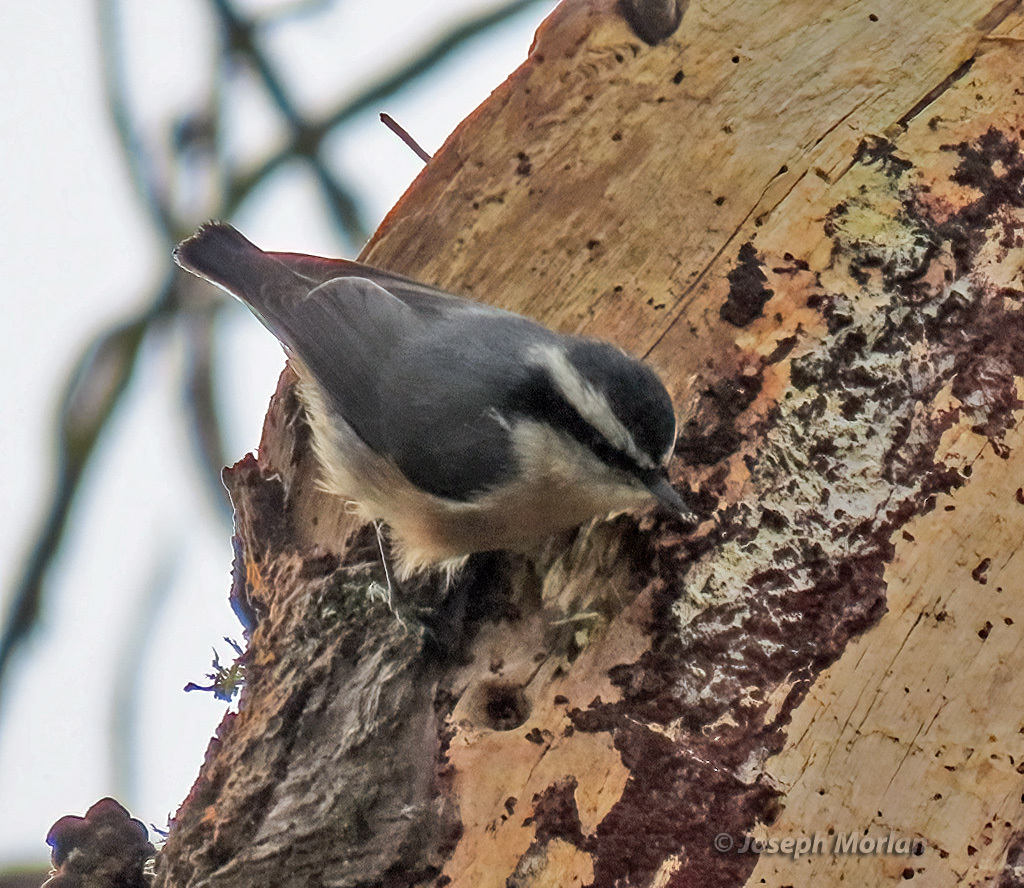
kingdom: Animalia
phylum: Chordata
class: Aves
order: Passeriformes
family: Sittidae
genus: Sitta
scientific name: Sitta canadensis
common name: Red-breasted nuthatch
